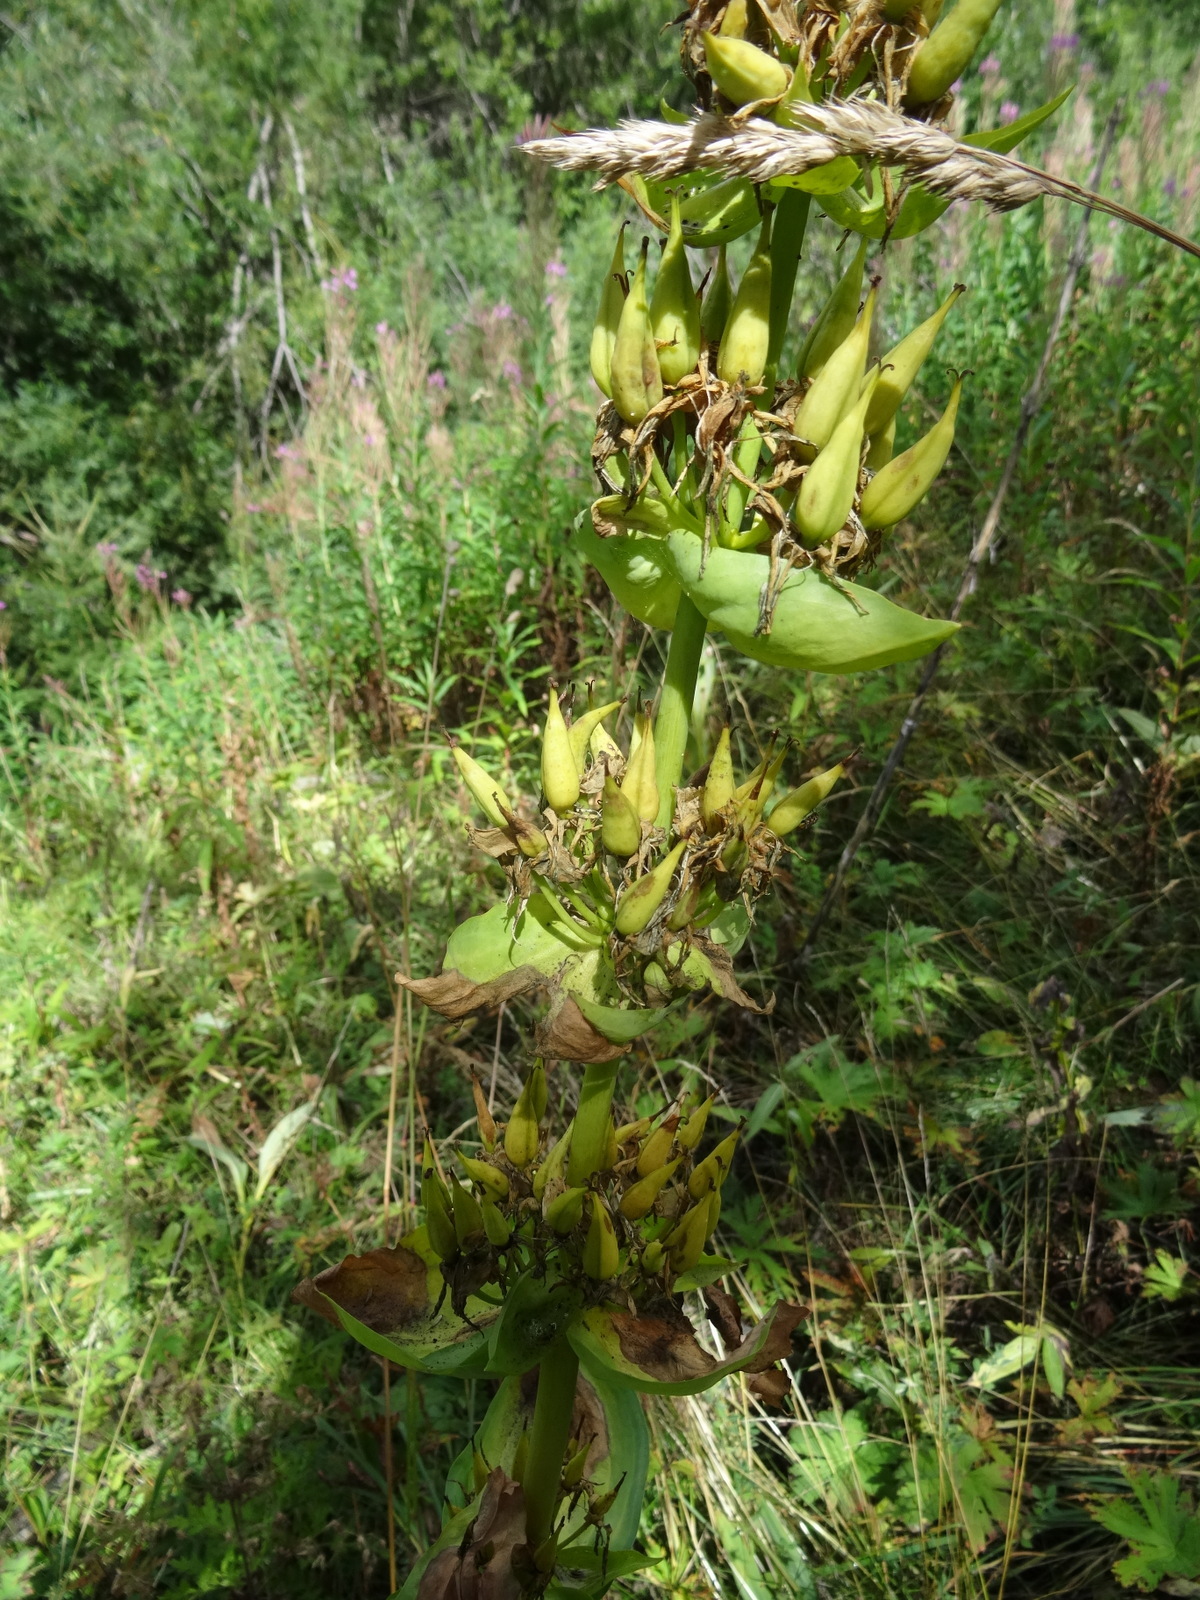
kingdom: Plantae
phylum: Tracheophyta
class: Magnoliopsida
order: Gentianales
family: Gentianaceae
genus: Gentiana
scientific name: Gentiana lutea
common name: Great yellow gentian
